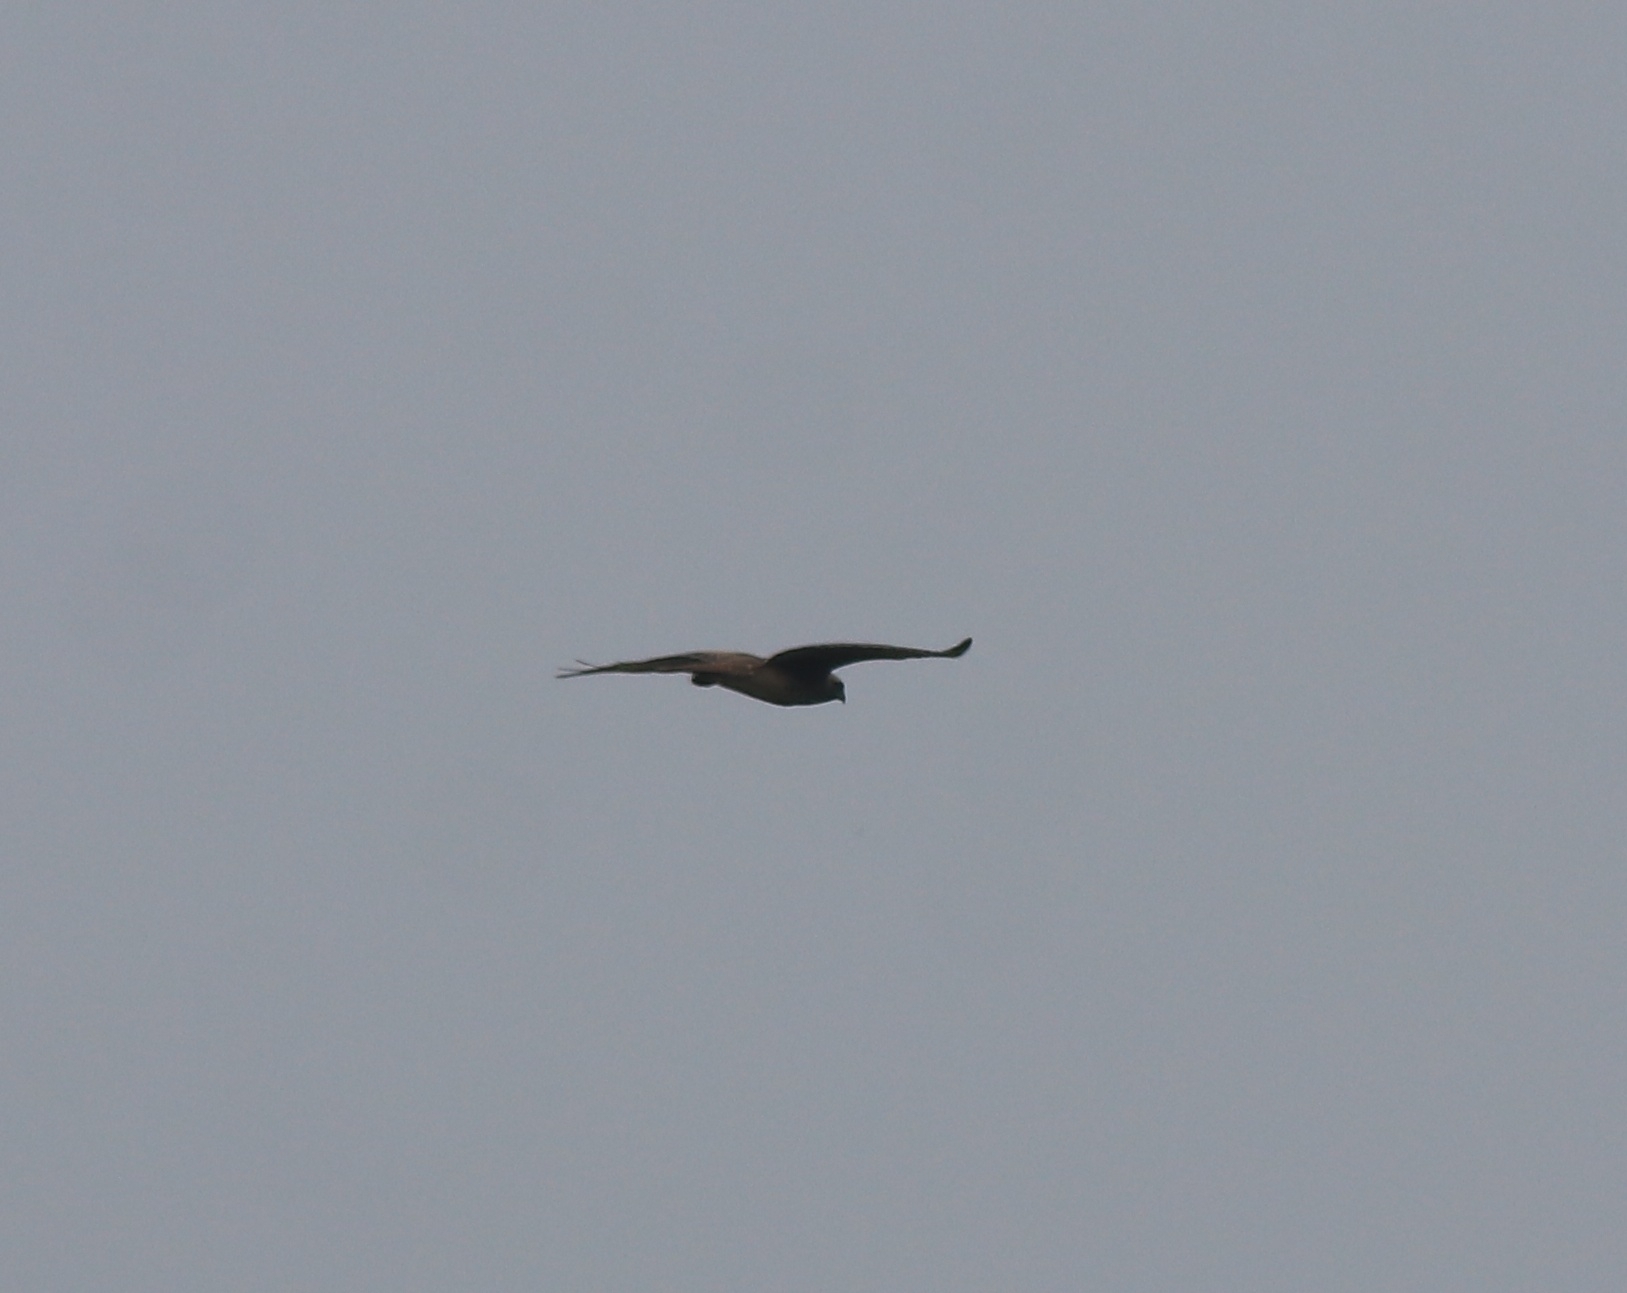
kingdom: Animalia
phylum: Chordata
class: Aves
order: Accipitriformes
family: Accipitridae
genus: Butastur
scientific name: Butastur teesa
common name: White-eyed buzzard
